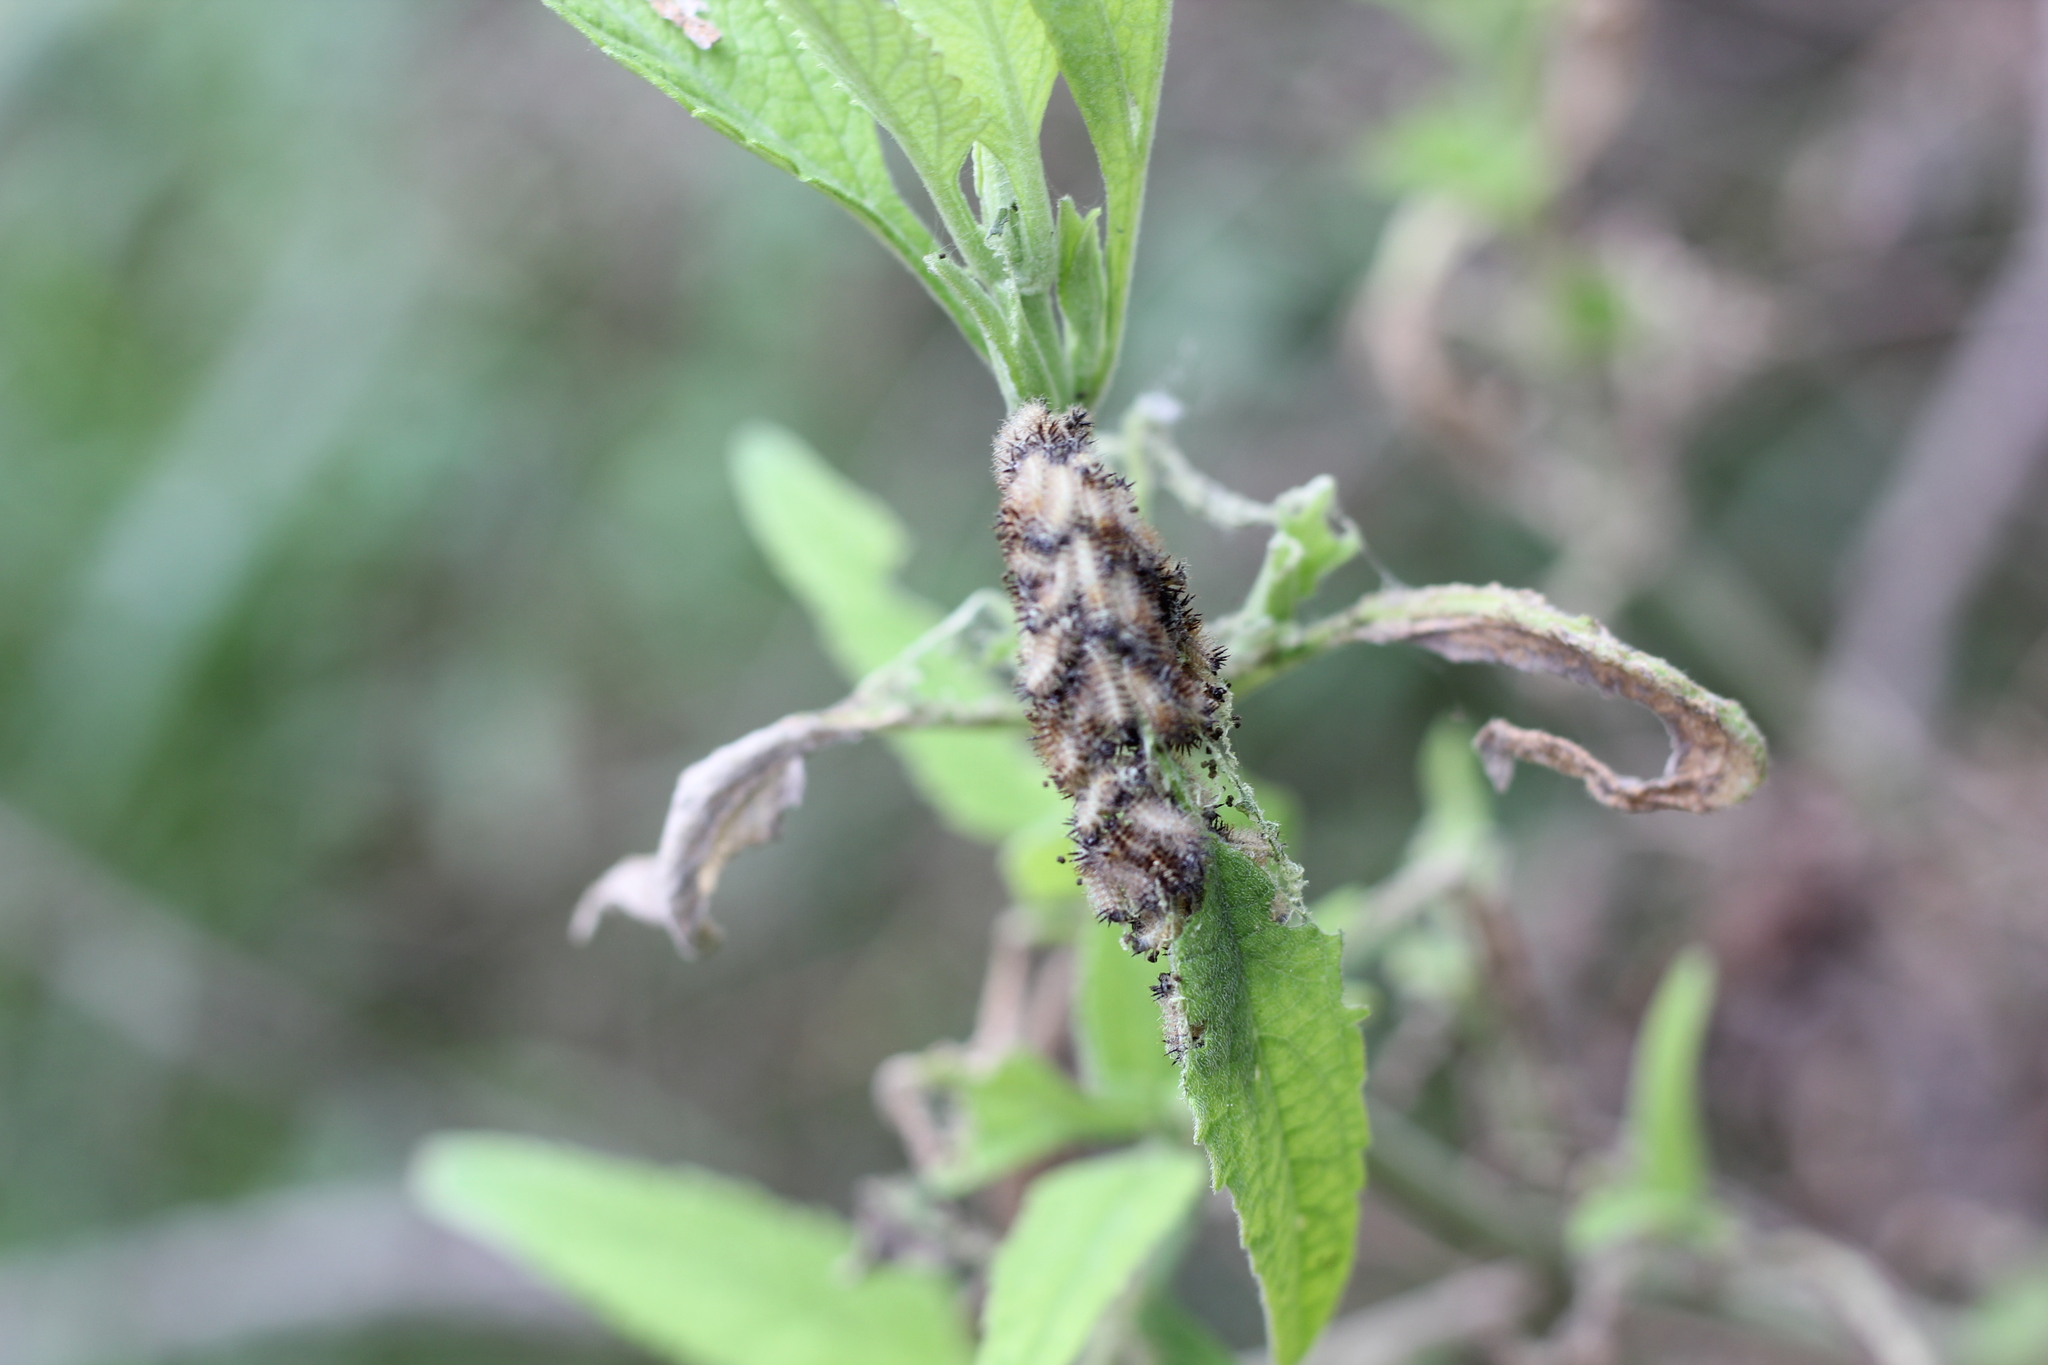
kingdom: Animalia
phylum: Arthropoda
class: Insecta
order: Lepidoptera
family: Nymphalidae
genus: Actinote
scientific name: Actinote
